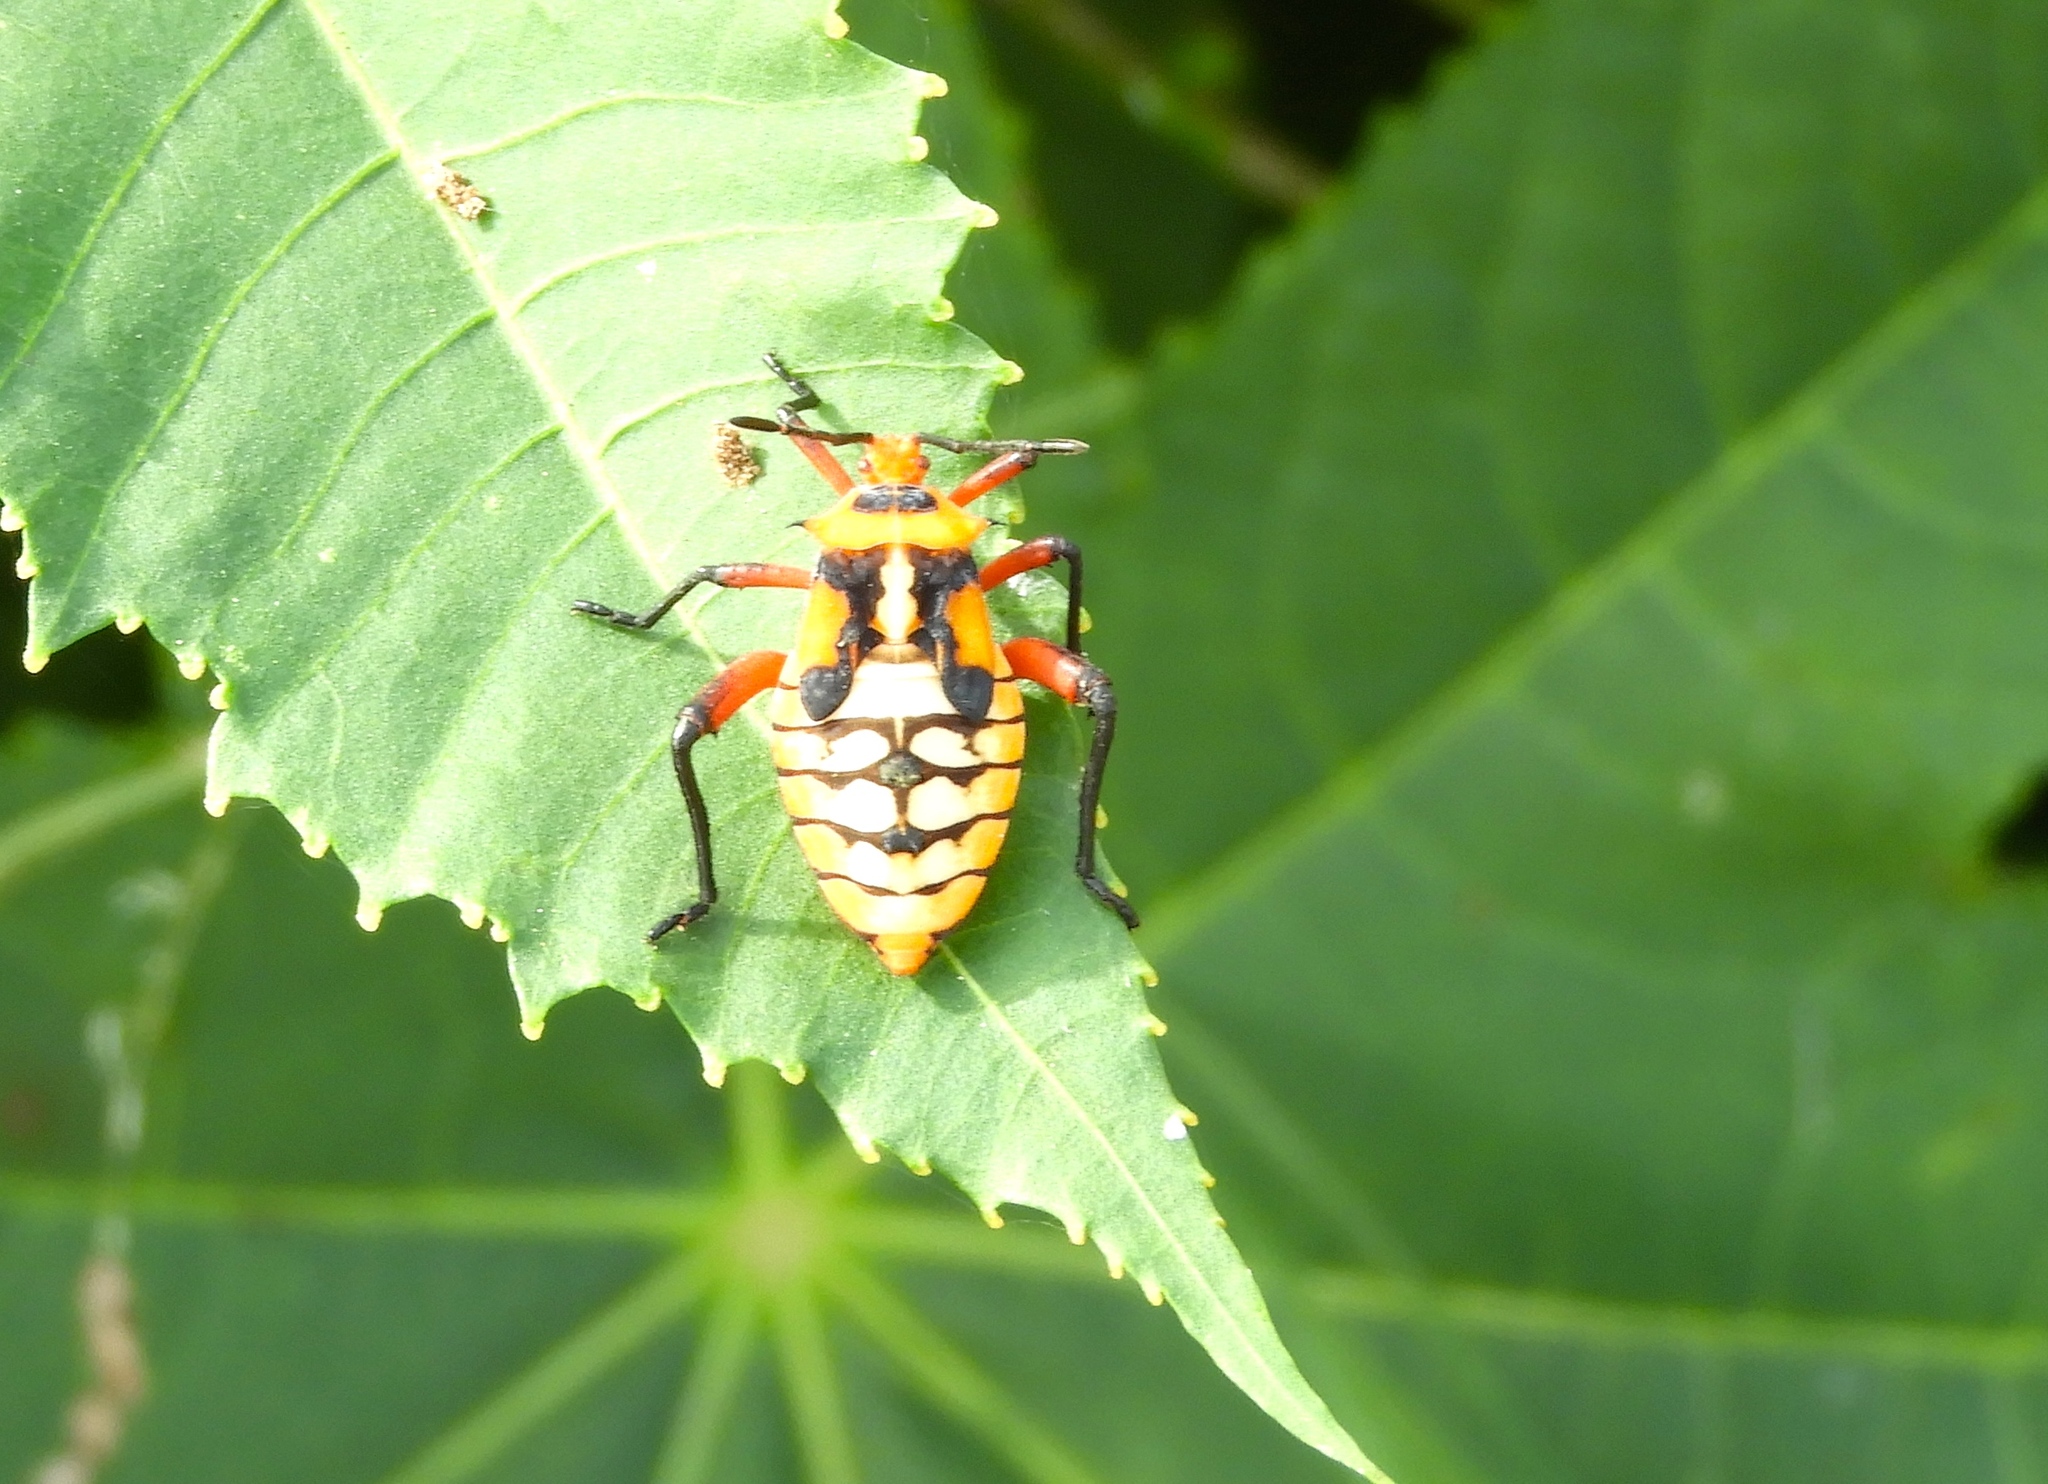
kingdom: Animalia
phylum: Arthropoda
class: Insecta
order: Hemiptera
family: Coreidae
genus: Sagotylus
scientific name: Sagotylus confluens
